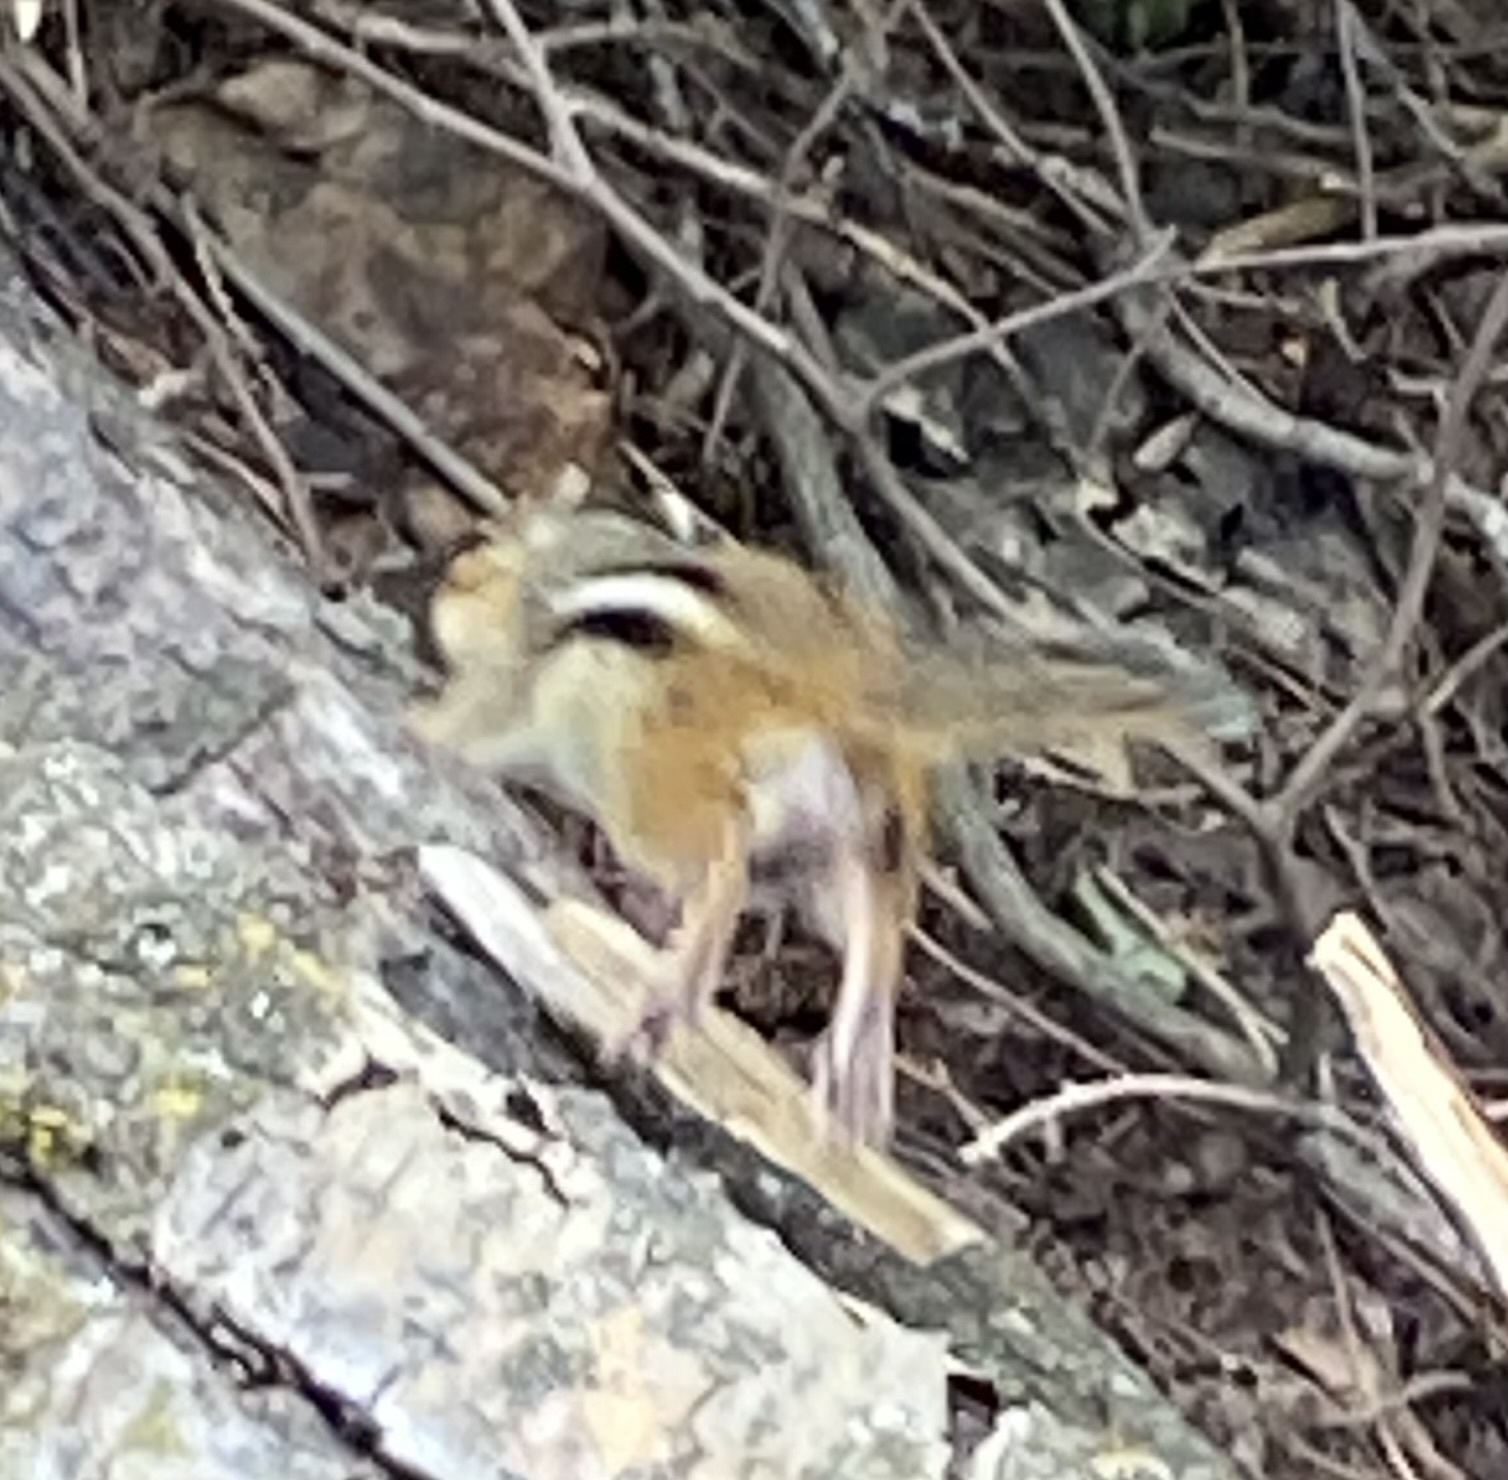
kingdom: Animalia
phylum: Chordata
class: Mammalia
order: Rodentia
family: Sciuridae
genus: Tamias
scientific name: Tamias striatus
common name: Eastern chipmunk
